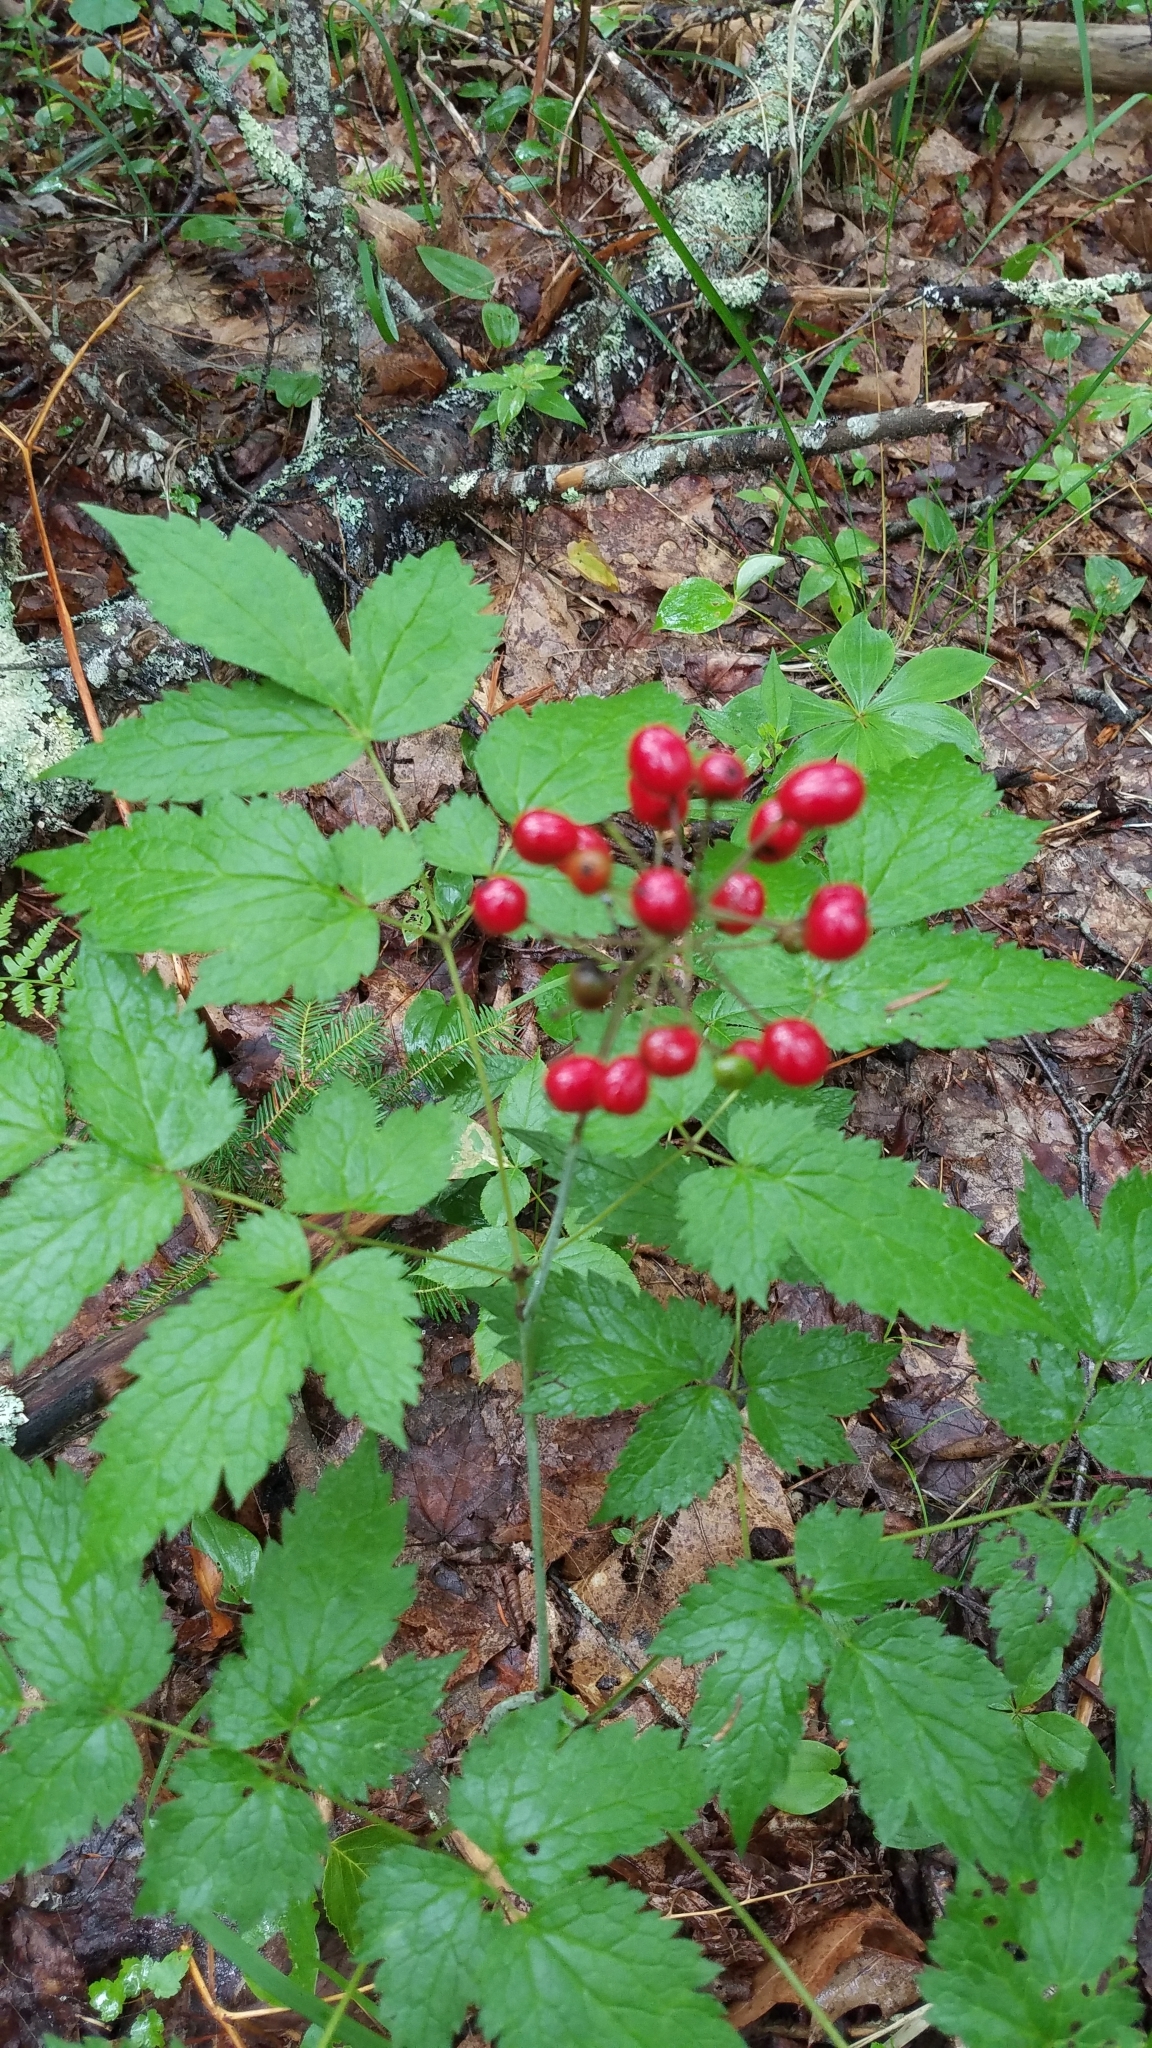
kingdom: Plantae
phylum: Tracheophyta
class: Magnoliopsida
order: Ranunculales
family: Ranunculaceae
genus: Actaea
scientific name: Actaea rubra
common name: Red baneberry
